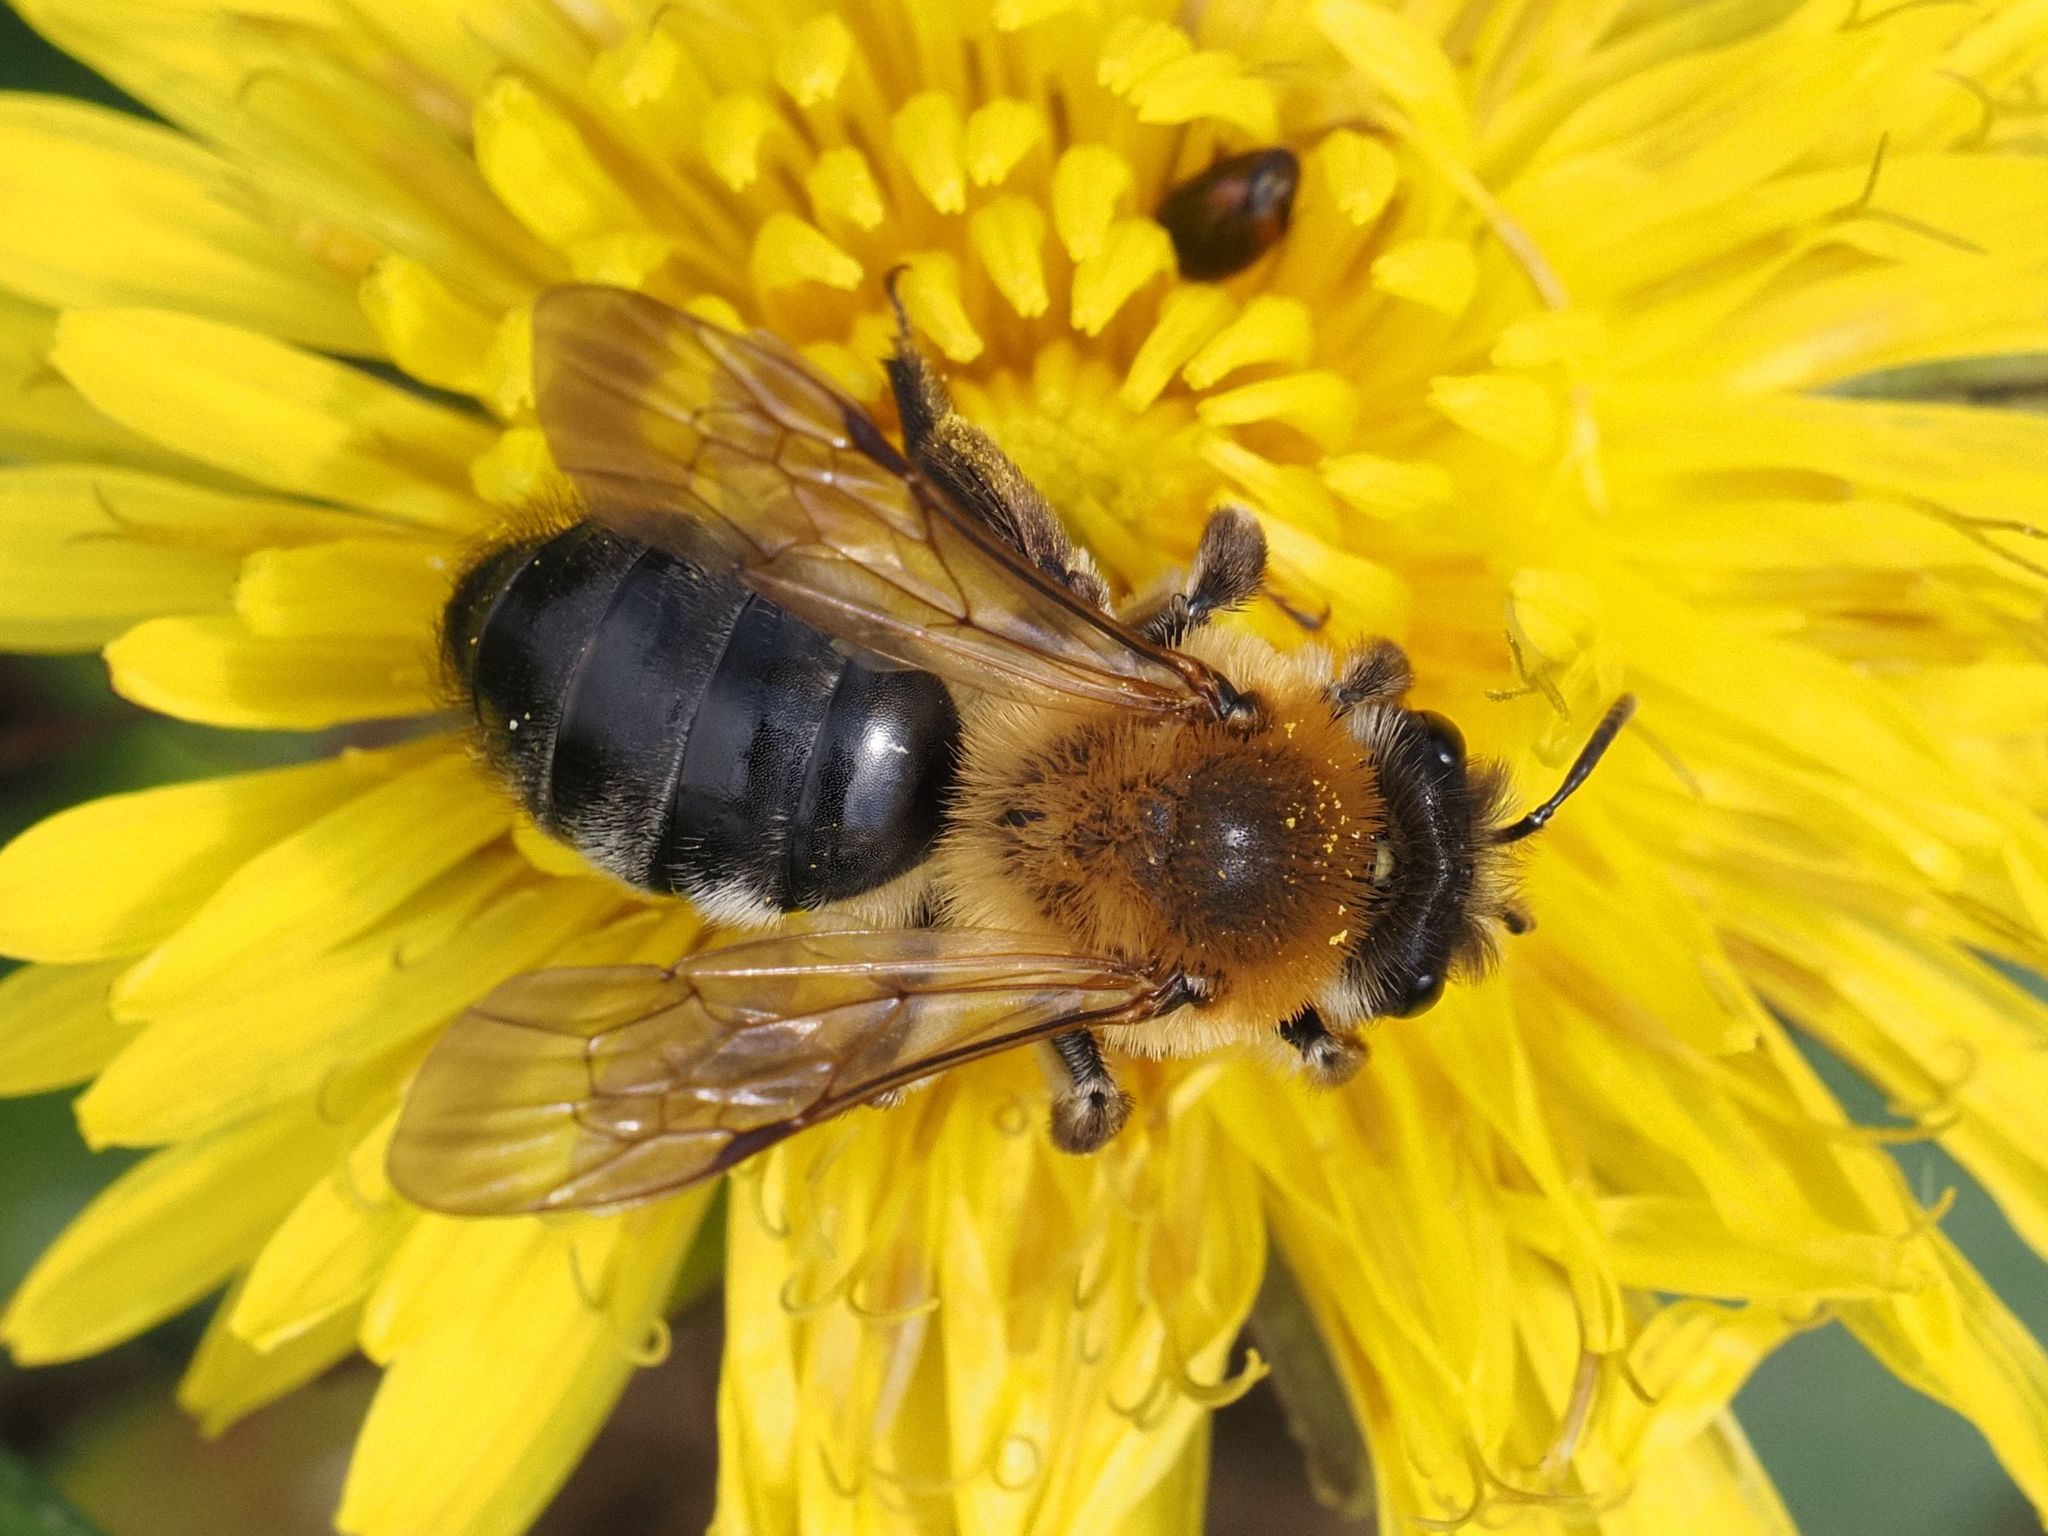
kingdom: Animalia
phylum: Arthropoda
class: Insecta
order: Hymenoptera
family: Andrenidae
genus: Andrena
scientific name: Andrena nitida
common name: Grey-patched mining bee
